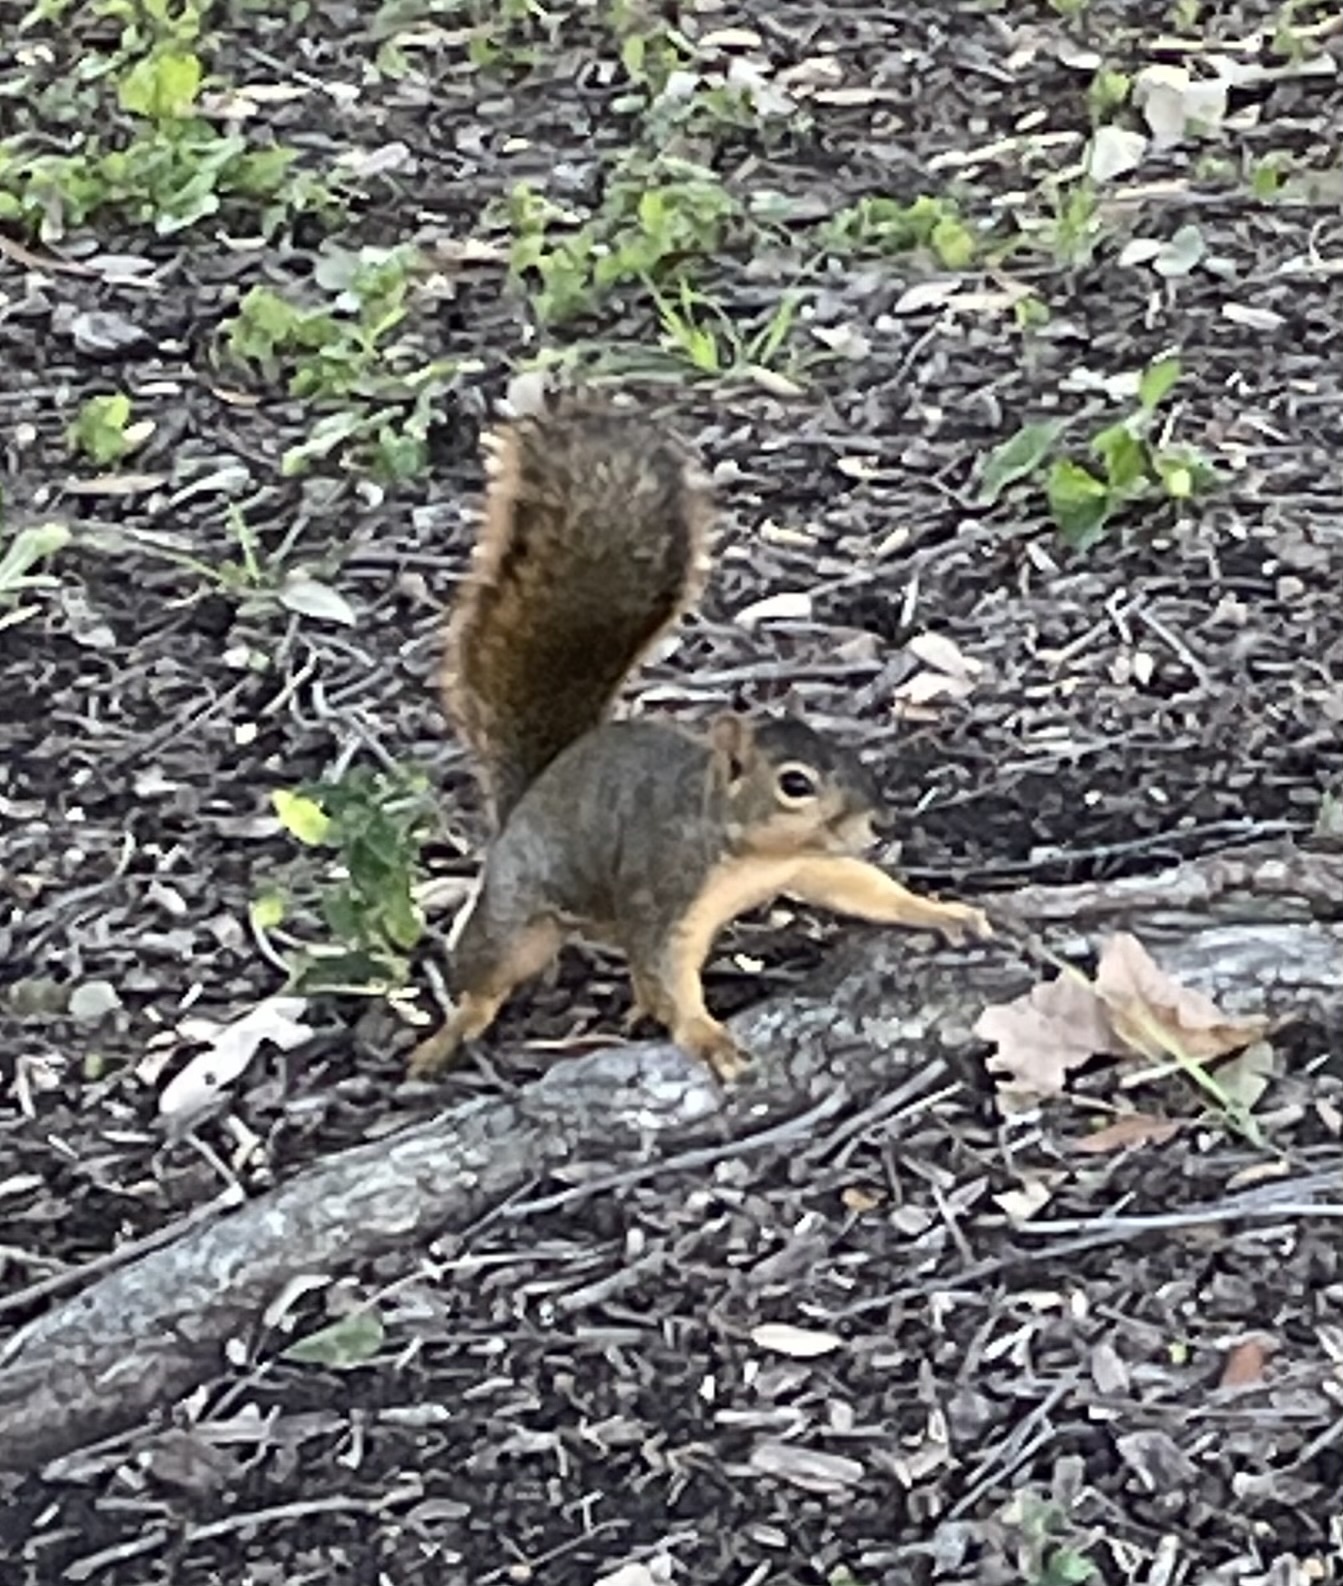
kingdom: Animalia
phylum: Chordata
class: Mammalia
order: Rodentia
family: Sciuridae
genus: Sciurus
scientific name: Sciurus niger
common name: Fox squirrel
